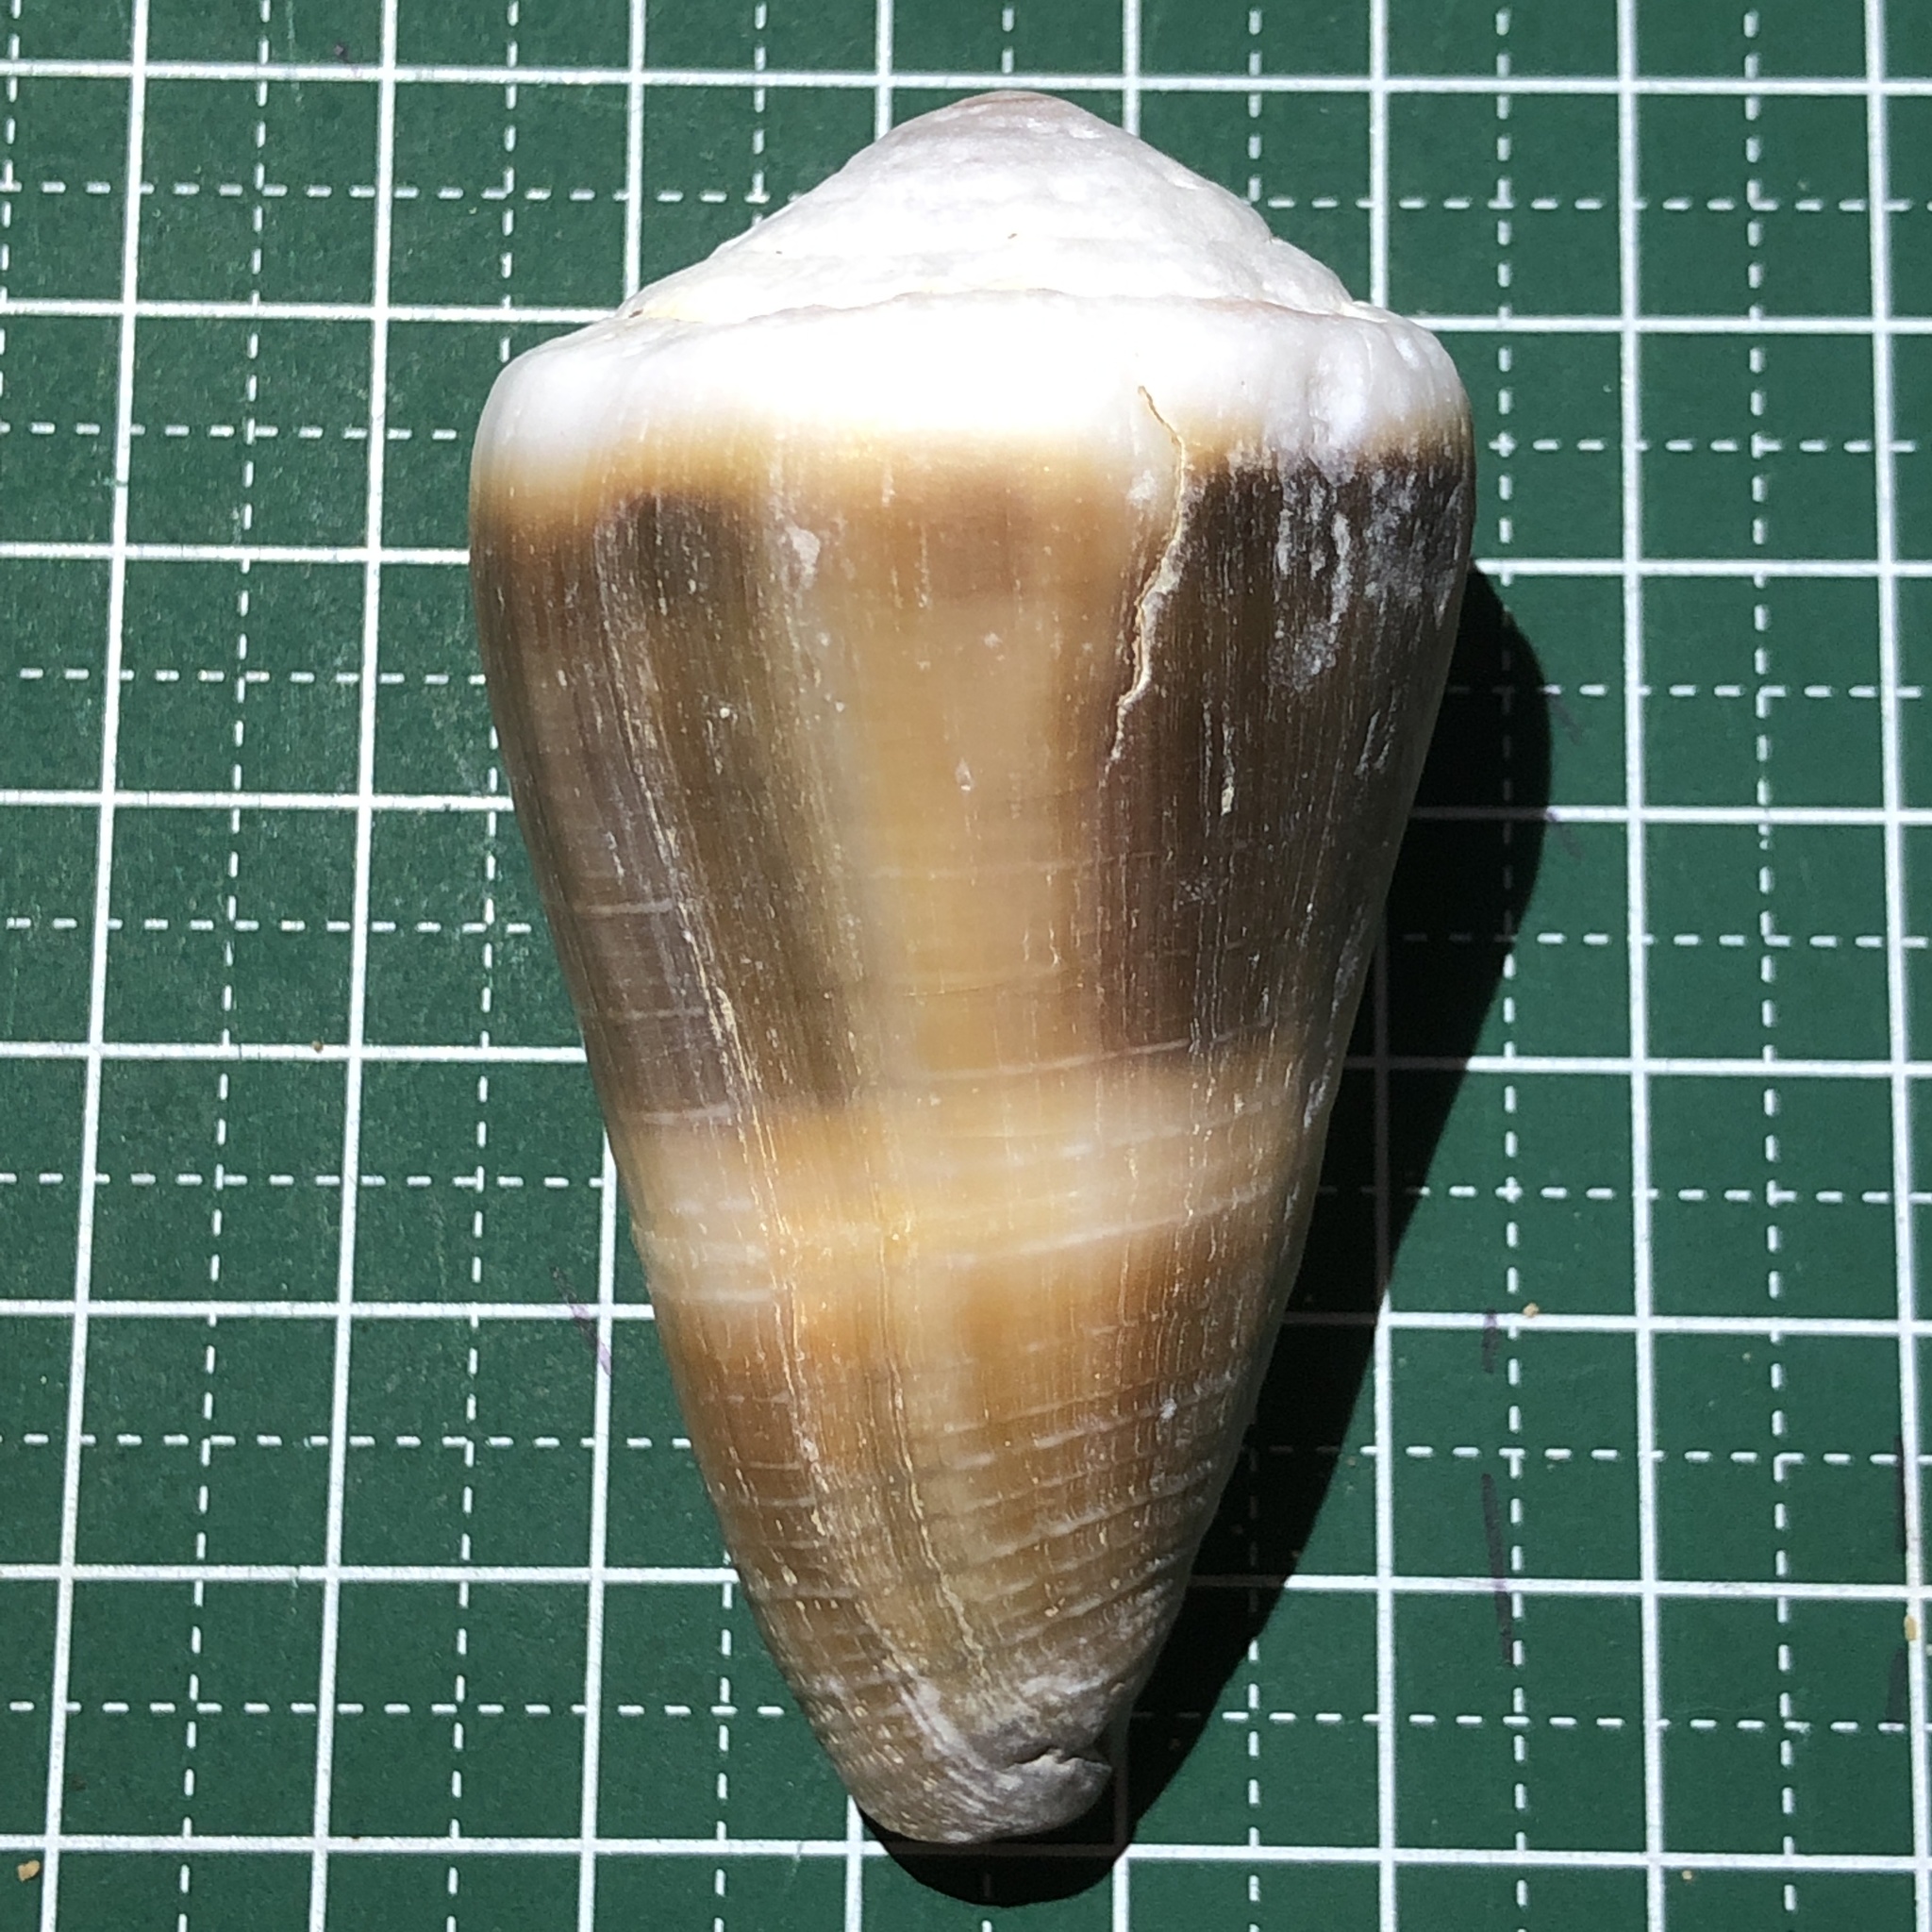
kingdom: Animalia
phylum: Mollusca
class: Gastropoda
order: Neogastropoda
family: Conidae
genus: Conus
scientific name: Conus lividus
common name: Livid cone
